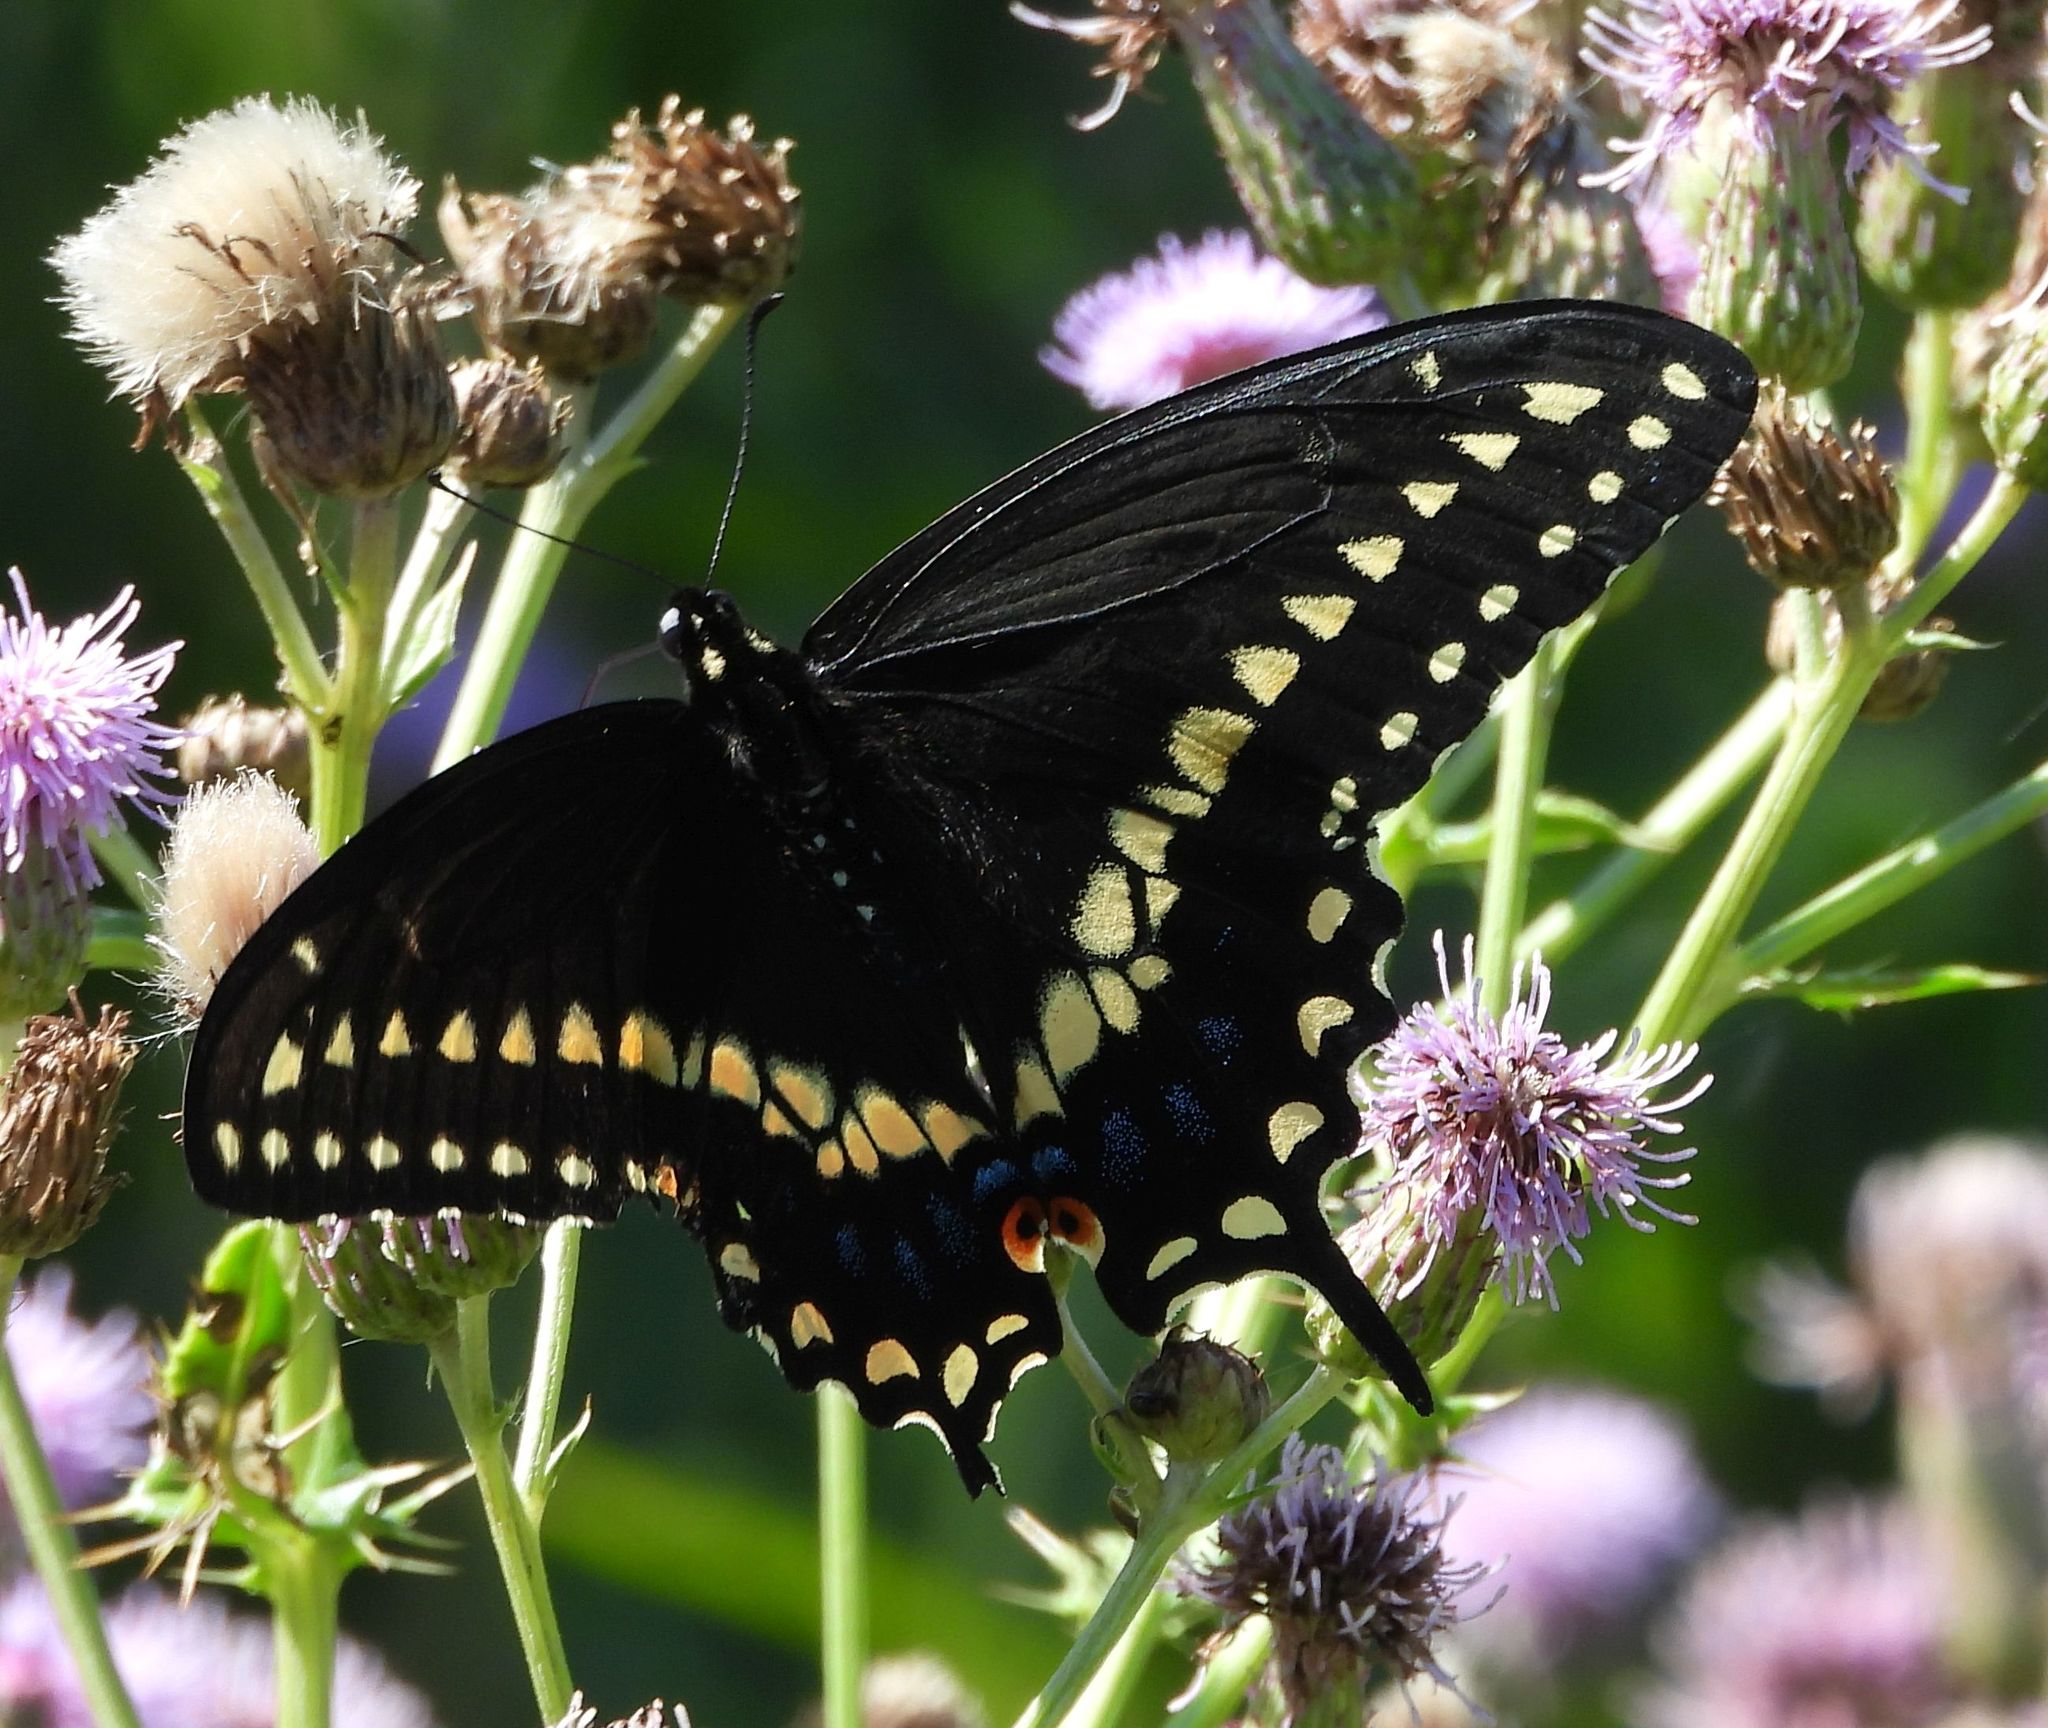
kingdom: Animalia
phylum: Arthropoda
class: Insecta
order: Lepidoptera
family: Papilionidae
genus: Papilio
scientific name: Papilio polyxenes
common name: Black swallowtail
